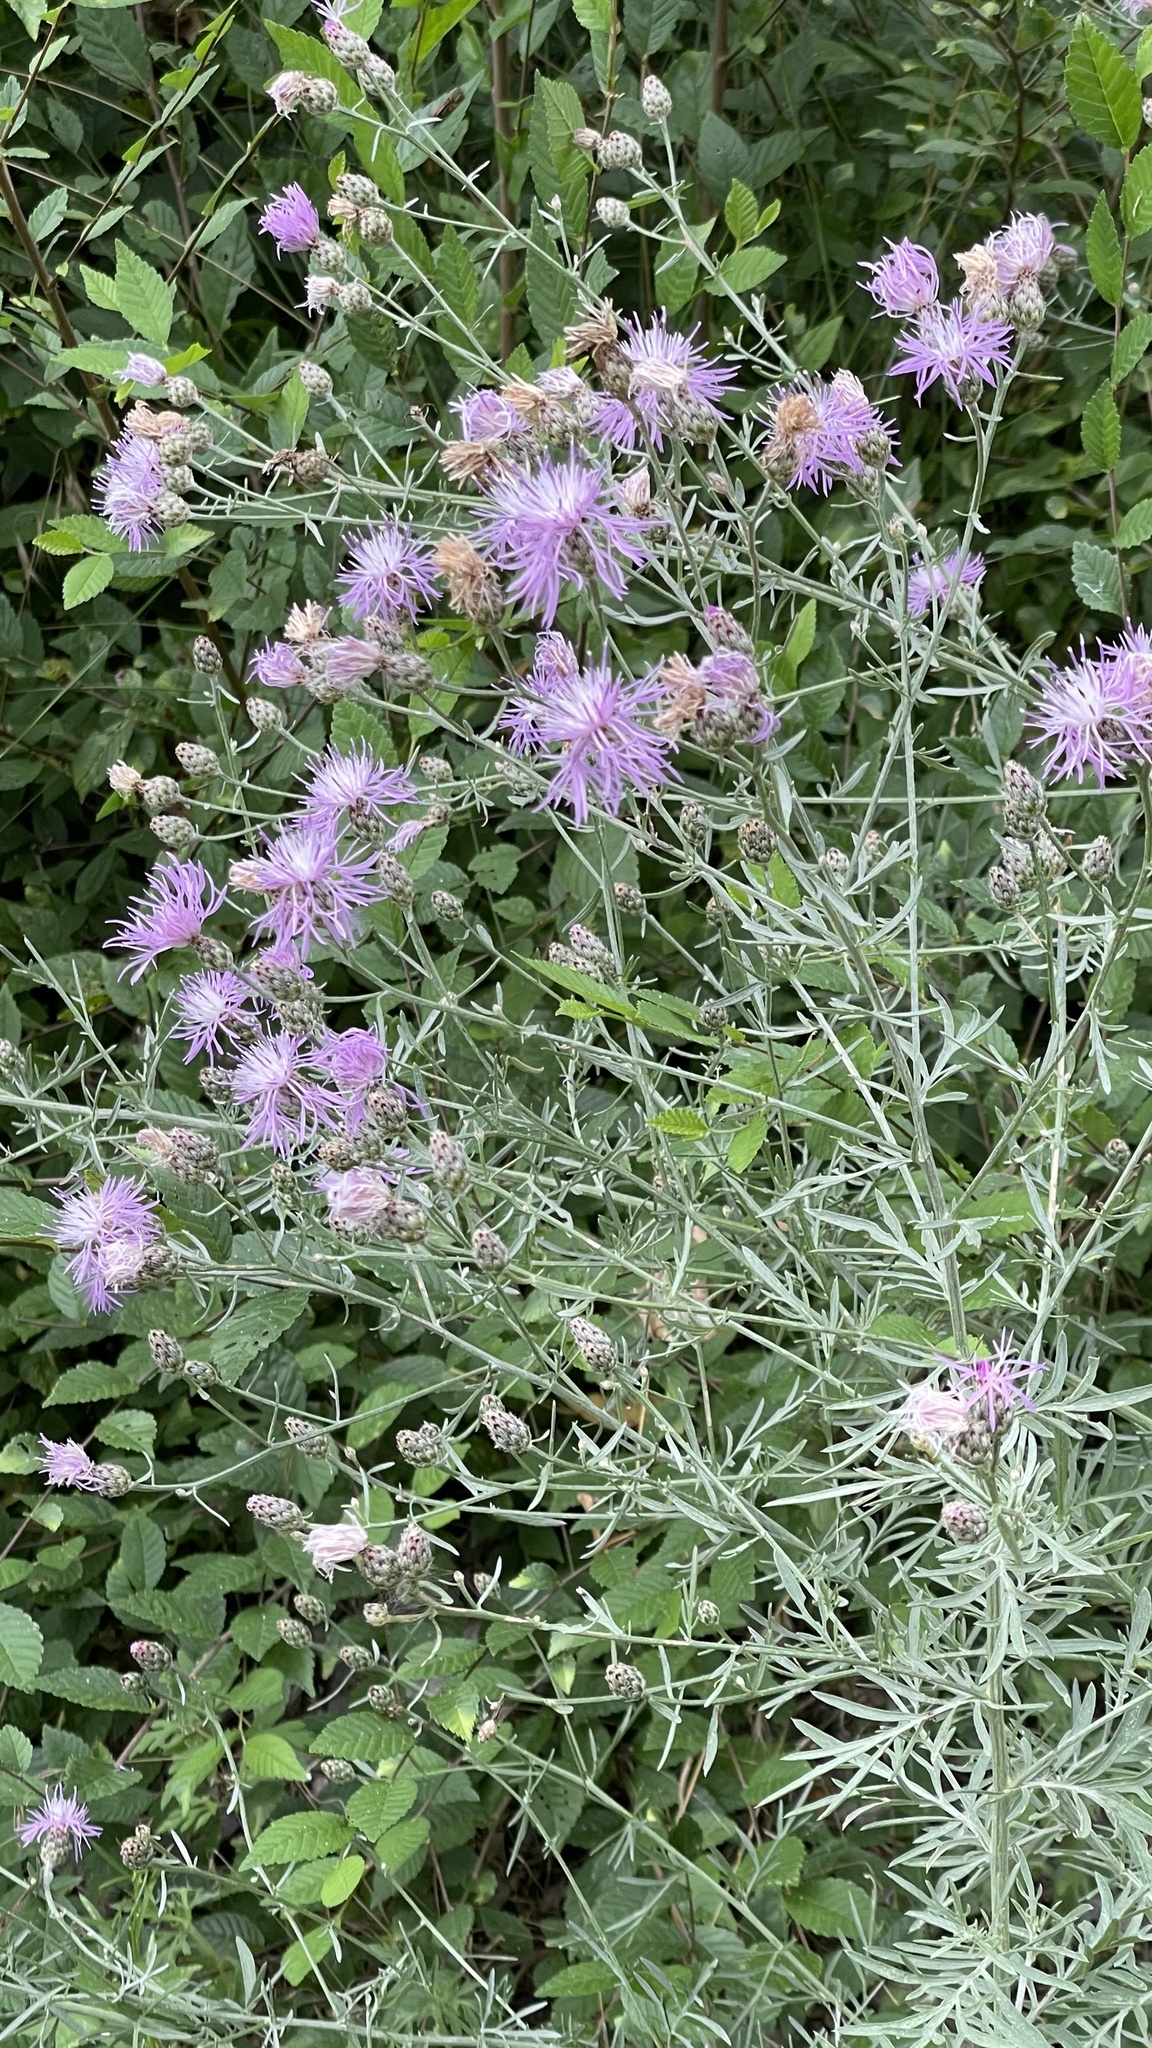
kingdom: Plantae
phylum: Tracheophyta
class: Magnoliopsida
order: Asterales
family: Asteraceae
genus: Centaurea
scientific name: Centaurea stoebe
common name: Spotted knapweed
